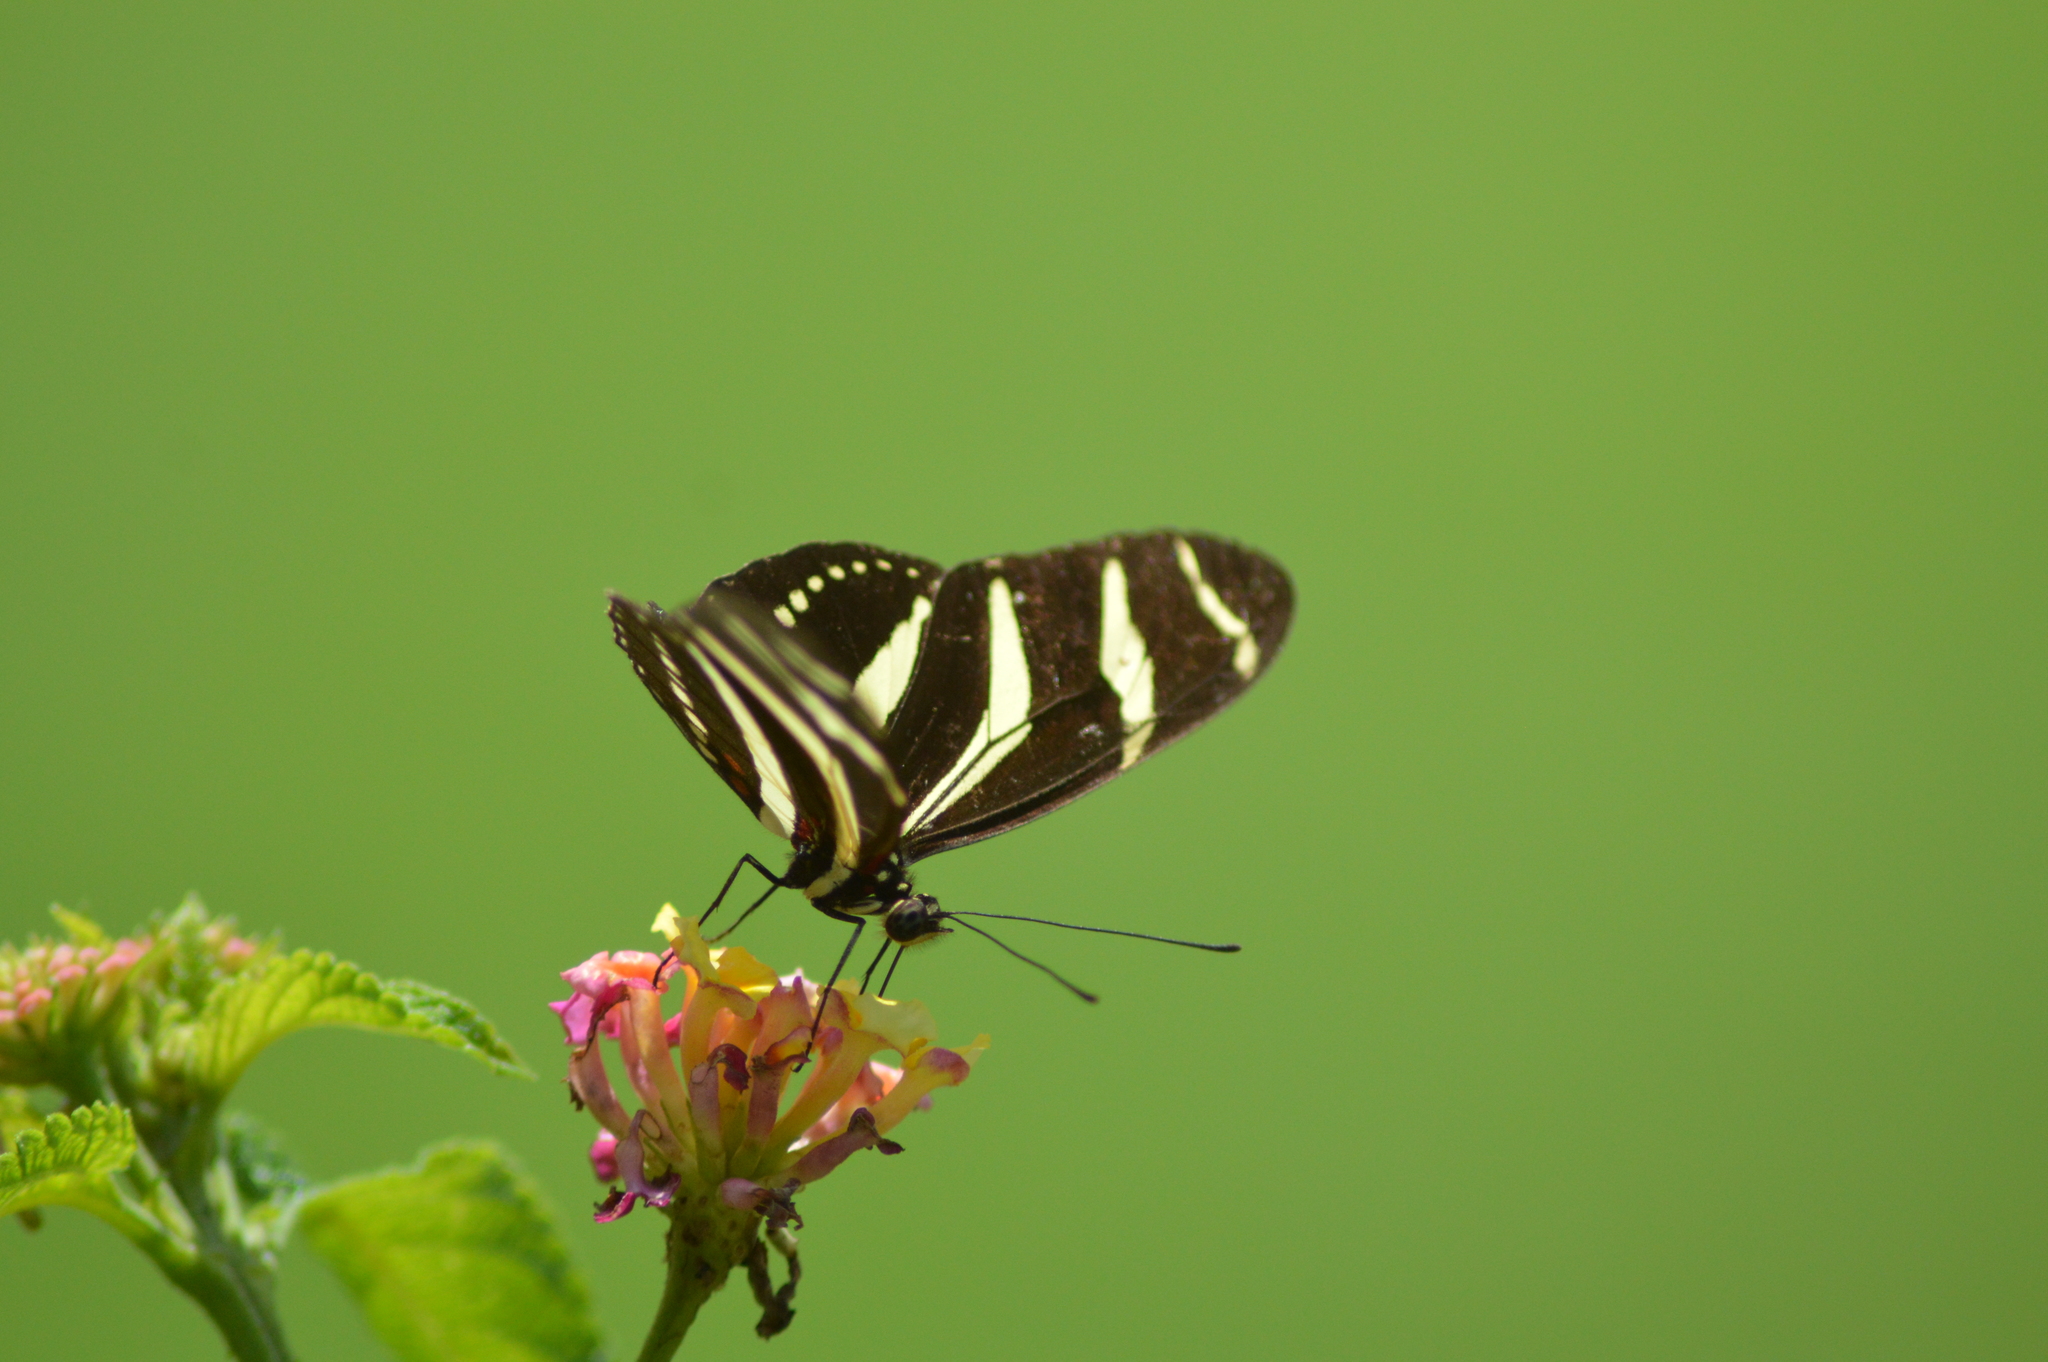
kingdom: Animalia
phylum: Arthropoda
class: Insecta
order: Lepidoptera
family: Nymphalidae
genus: Heliconius
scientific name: Heliconius charithonia
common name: Zebra long wing
